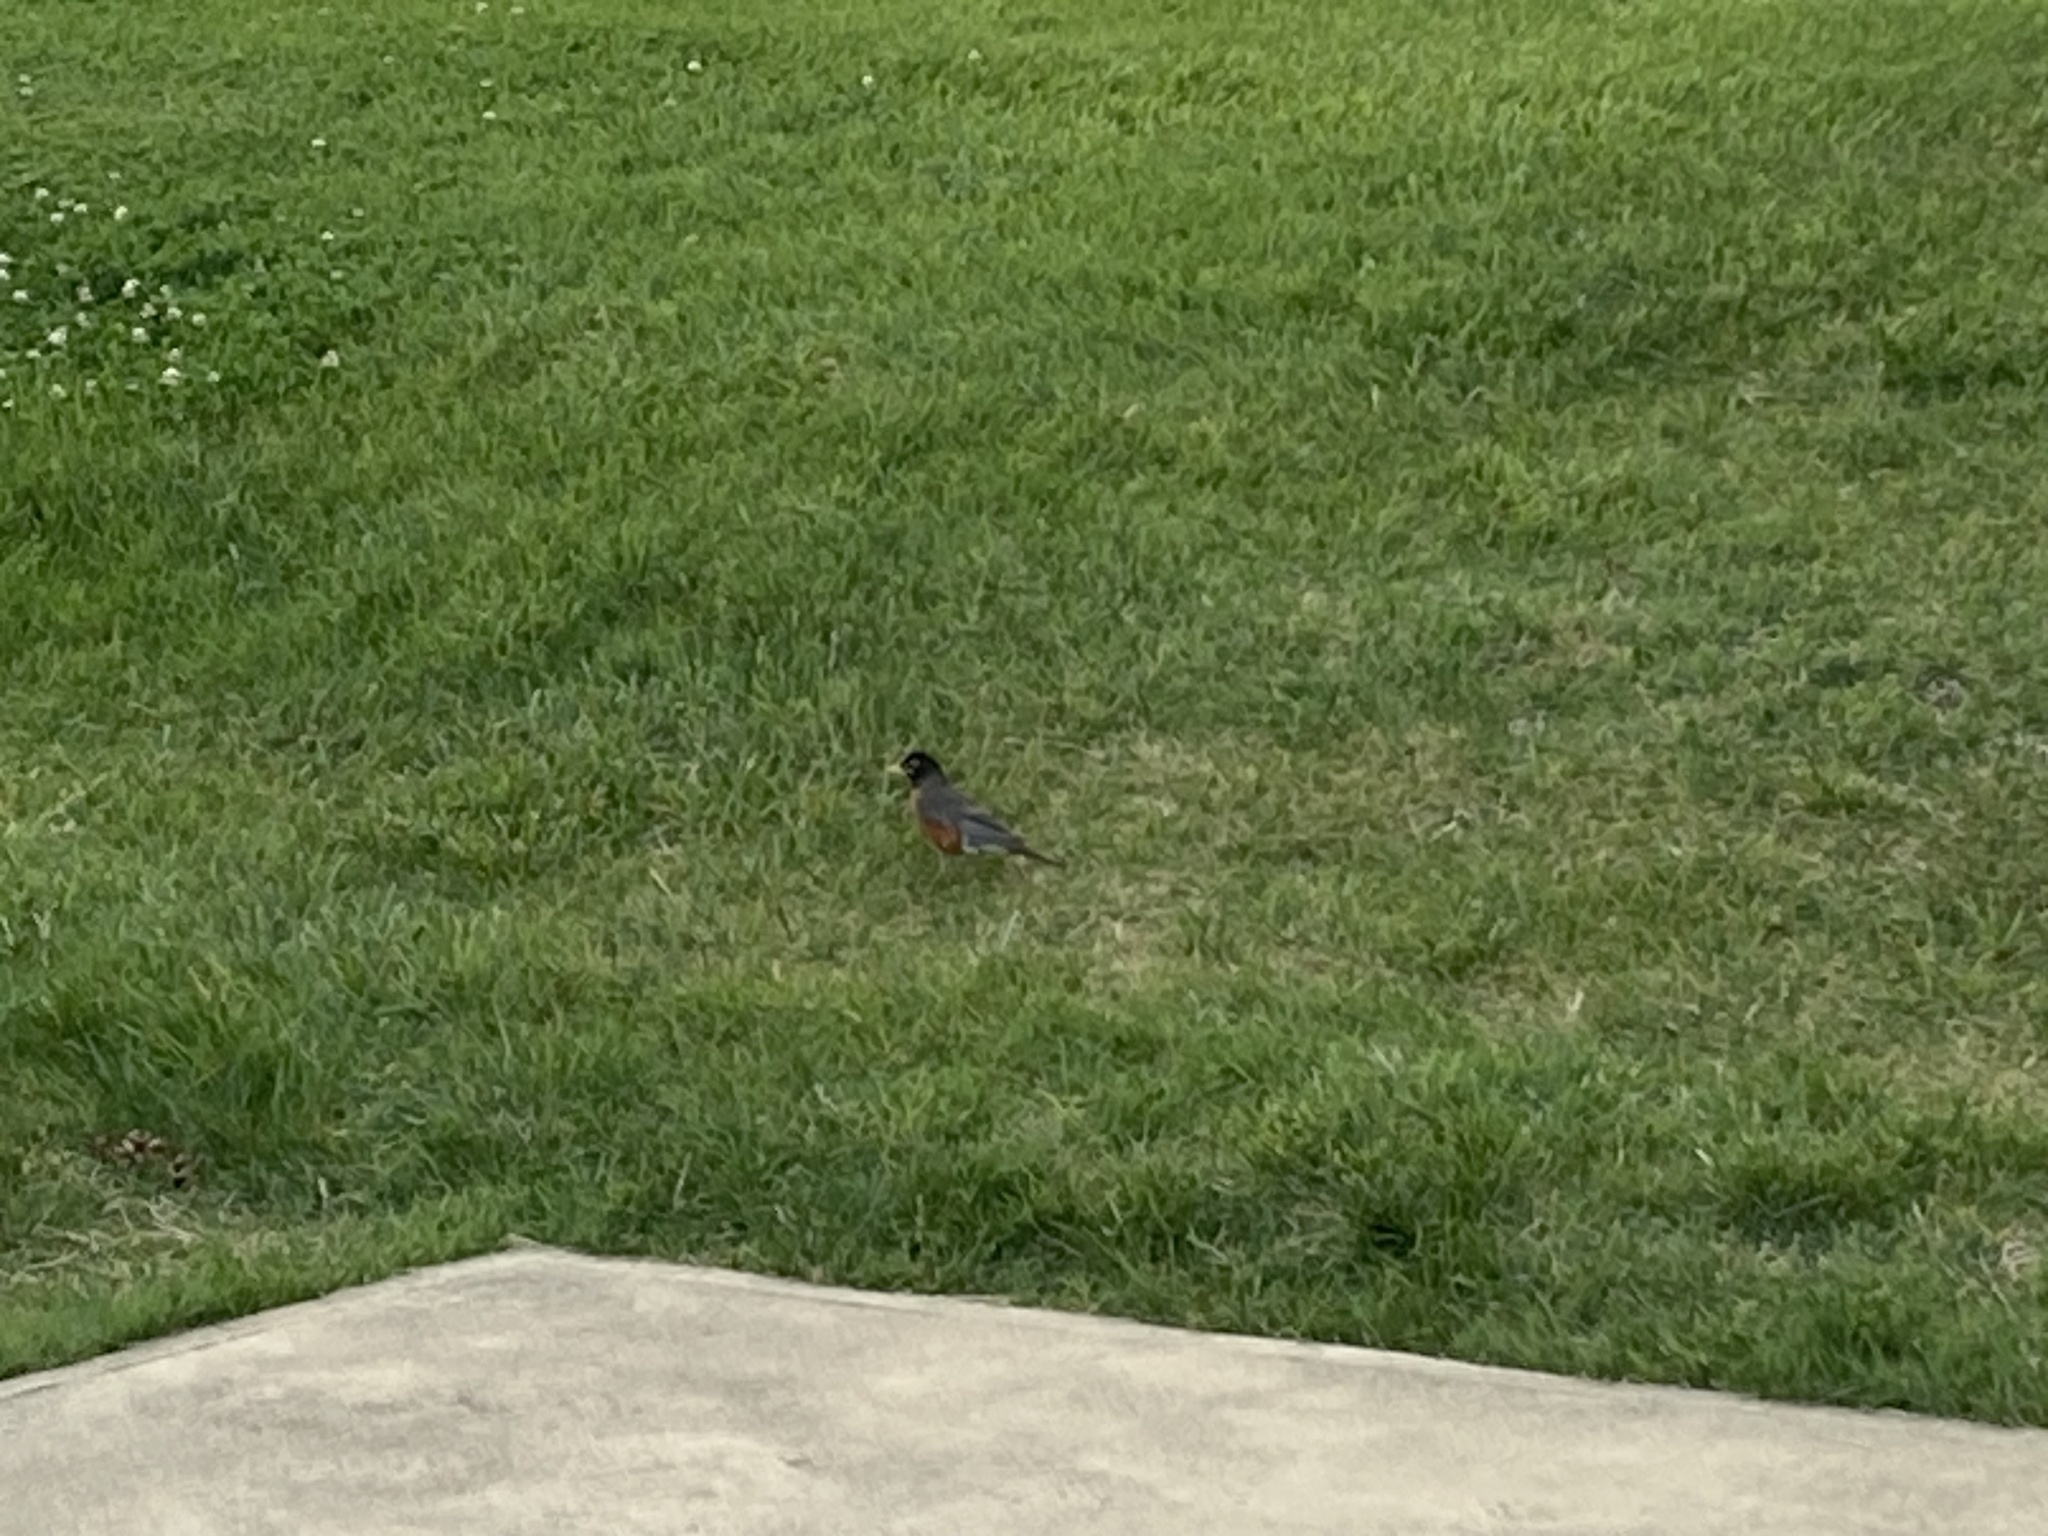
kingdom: Animalia
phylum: Chordata
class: Aves
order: Passeriformes
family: Turdidae
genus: Turdus
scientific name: Turdus migratorius
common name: American robin
